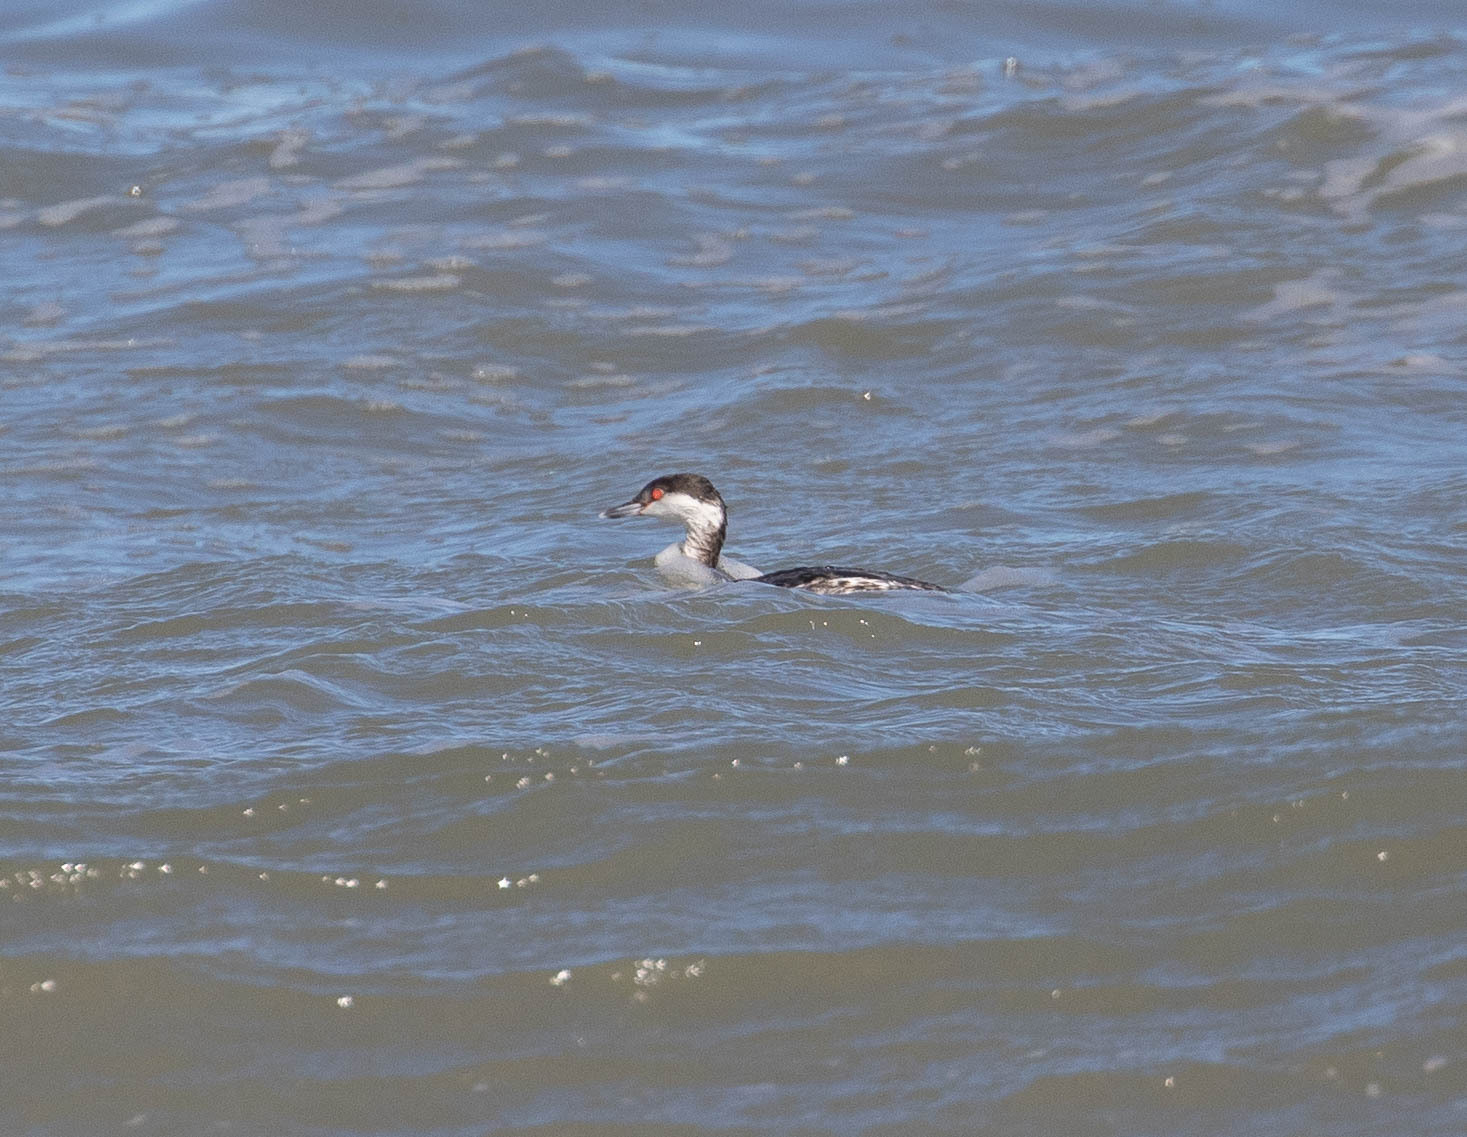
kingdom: Animalia
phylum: Chordata
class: Aves
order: Podicipediformes
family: Podicipedidae
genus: Podiceps
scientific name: Podiceps auritus
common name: Horned grebe
